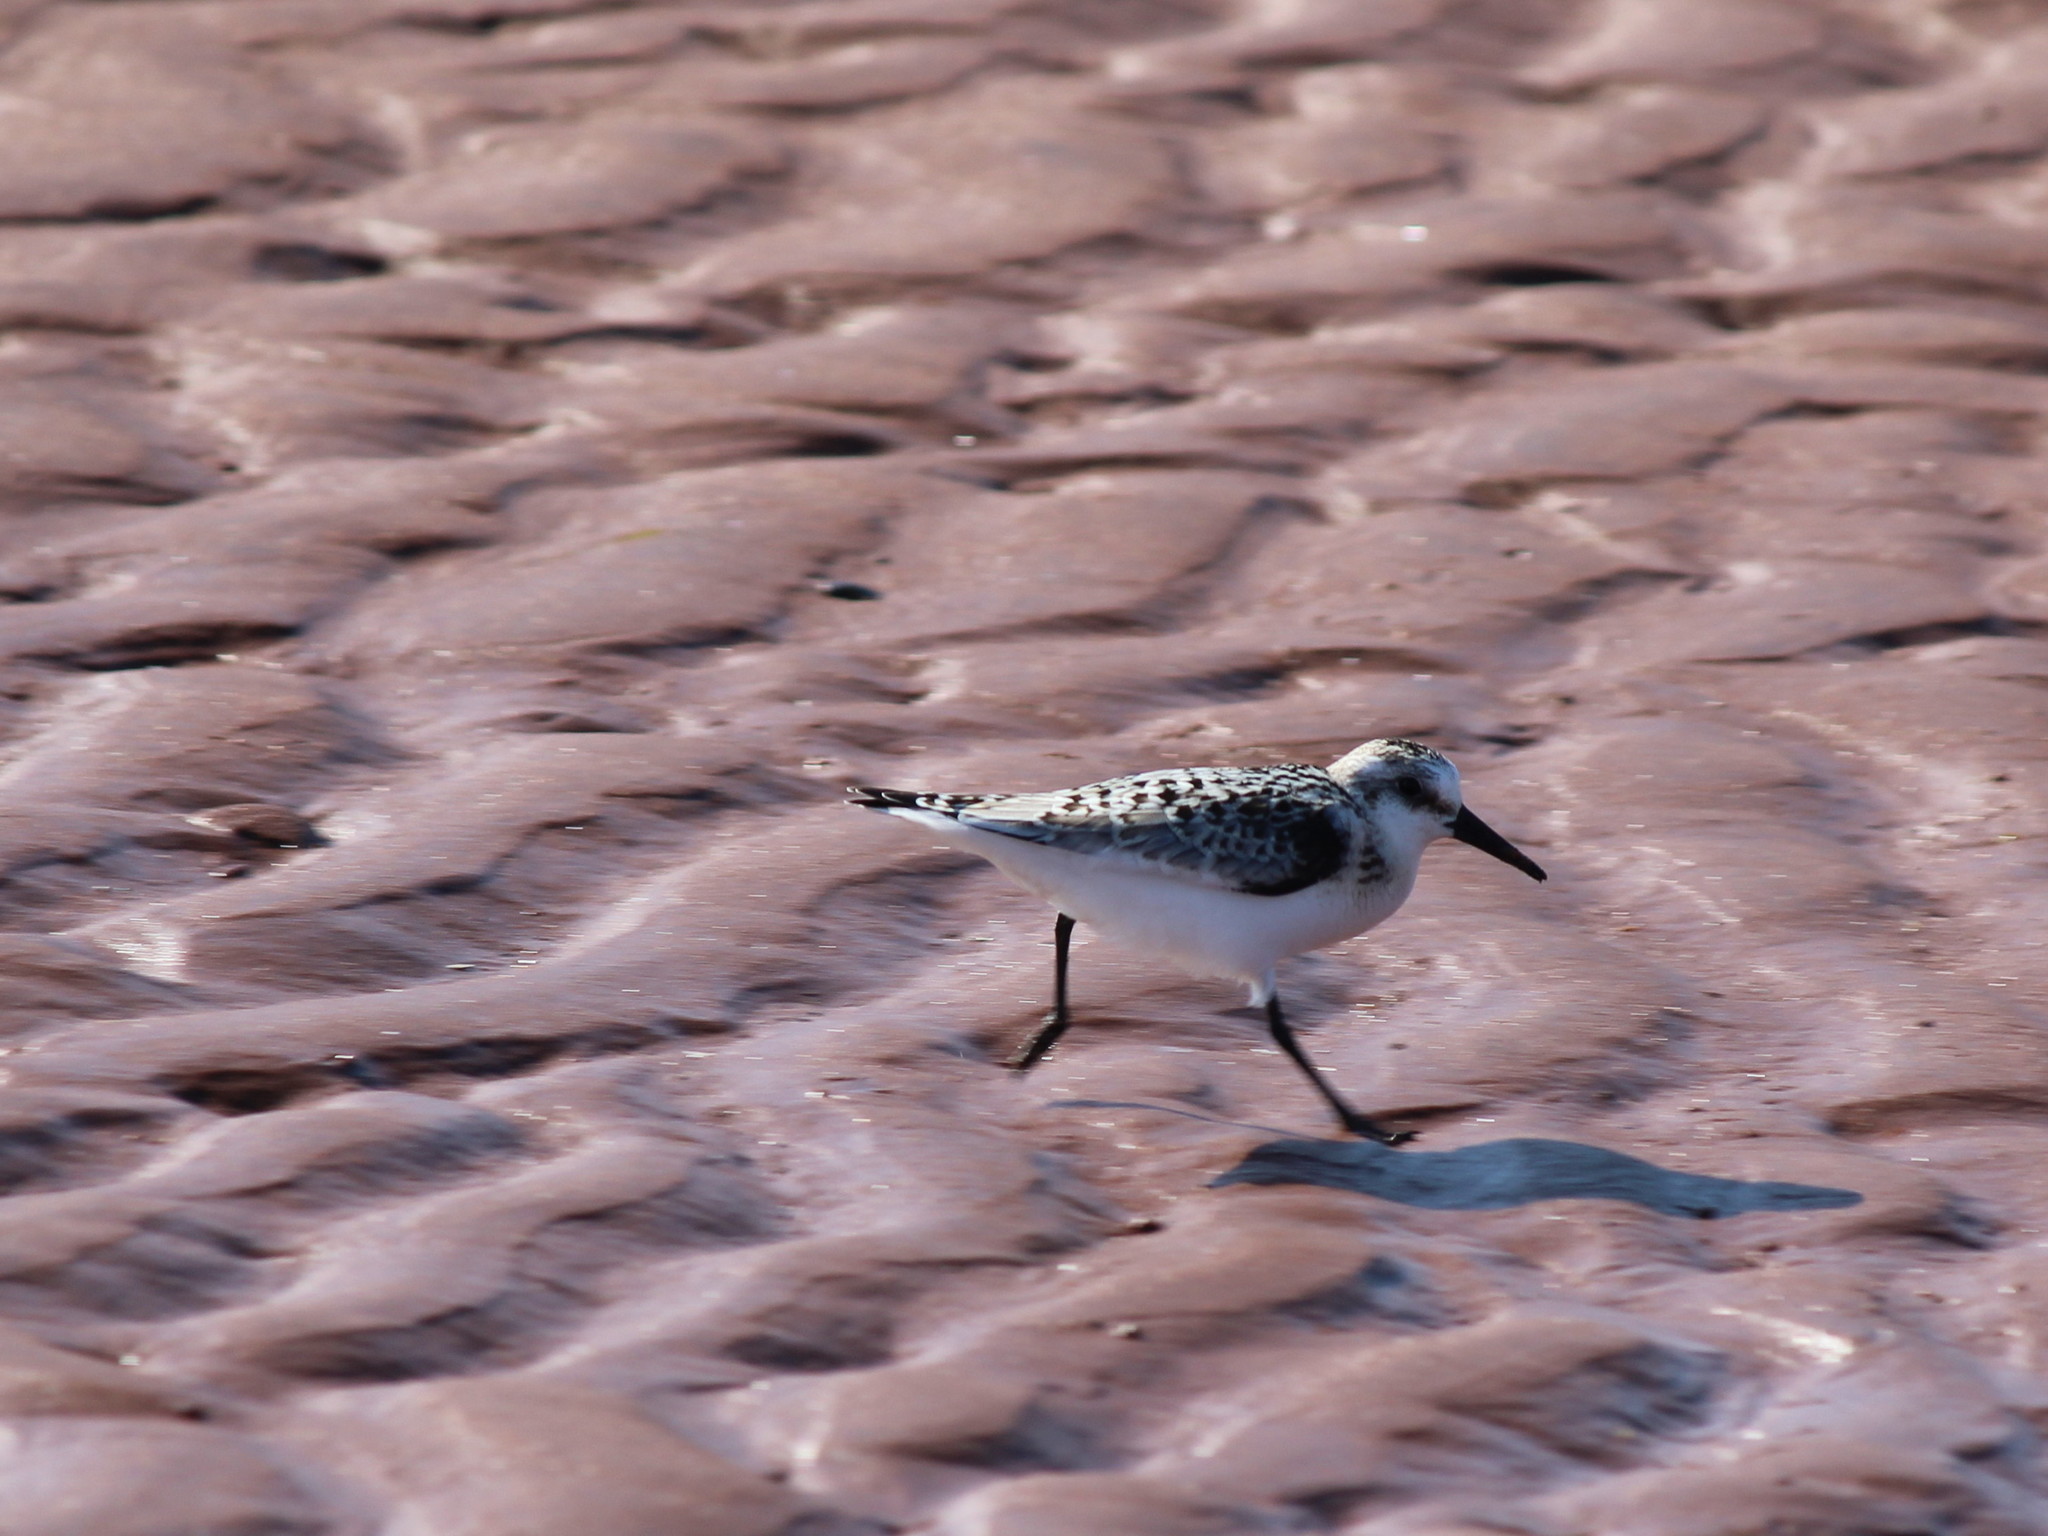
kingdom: Animalia
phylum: Chordata
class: Aves
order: Charadriiformes
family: Scolopacidae
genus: Calidris
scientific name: Calidris alba
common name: Sanderling
